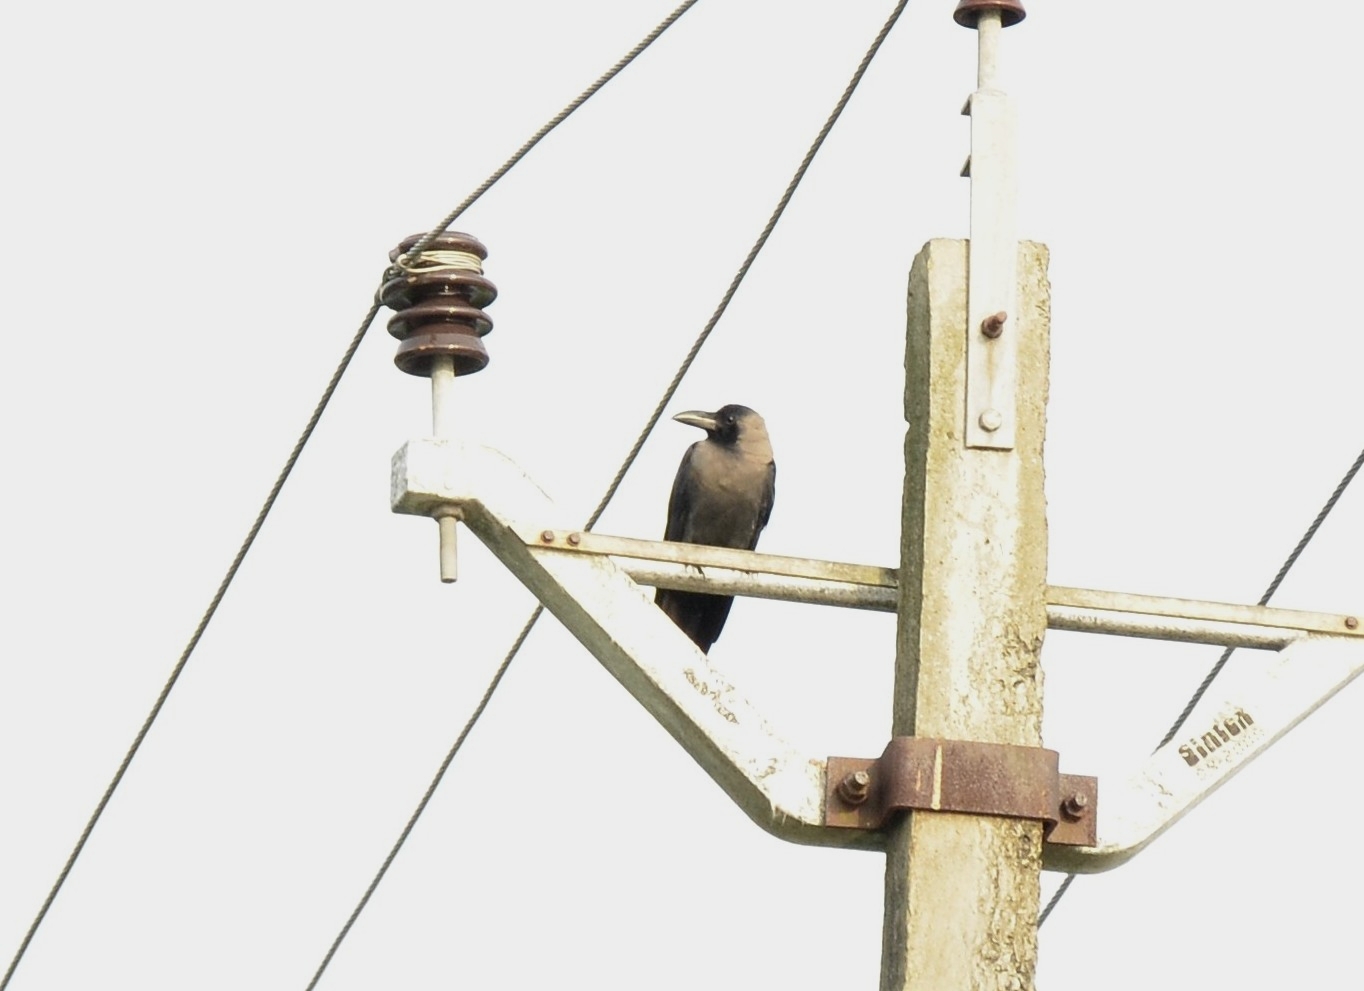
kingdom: Animalia
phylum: Chordata
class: Aves
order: Passeriformes
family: Corvidae
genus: Corvus
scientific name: Corvus splendens
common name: House crow
